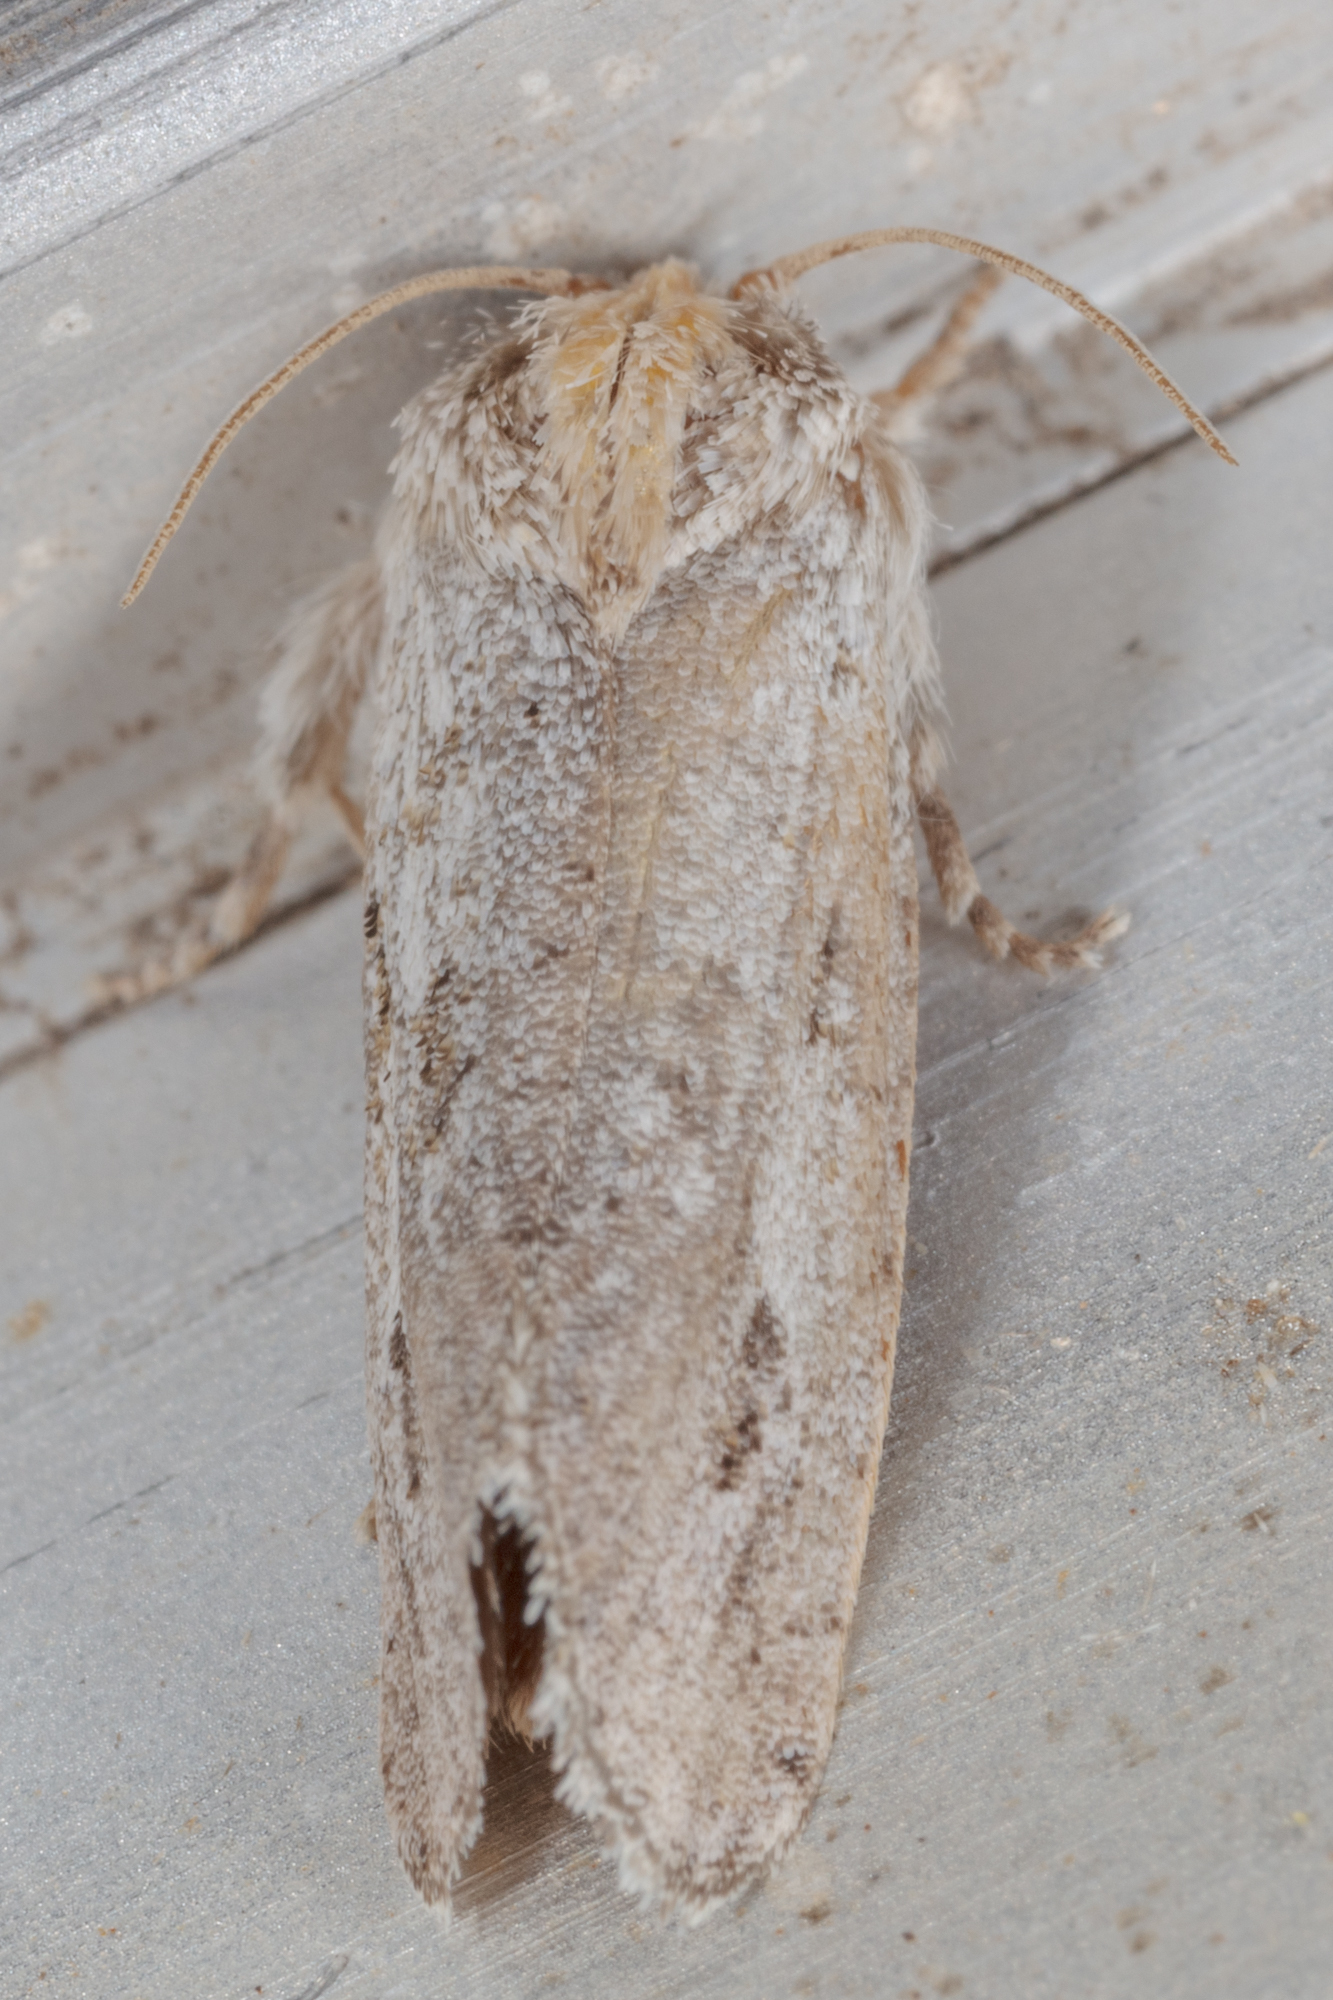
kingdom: Animalia
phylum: Arthropoda
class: Insecta
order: Lepidoptera
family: Tineidae
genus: Acrolophus
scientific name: Acrolophus griseus
